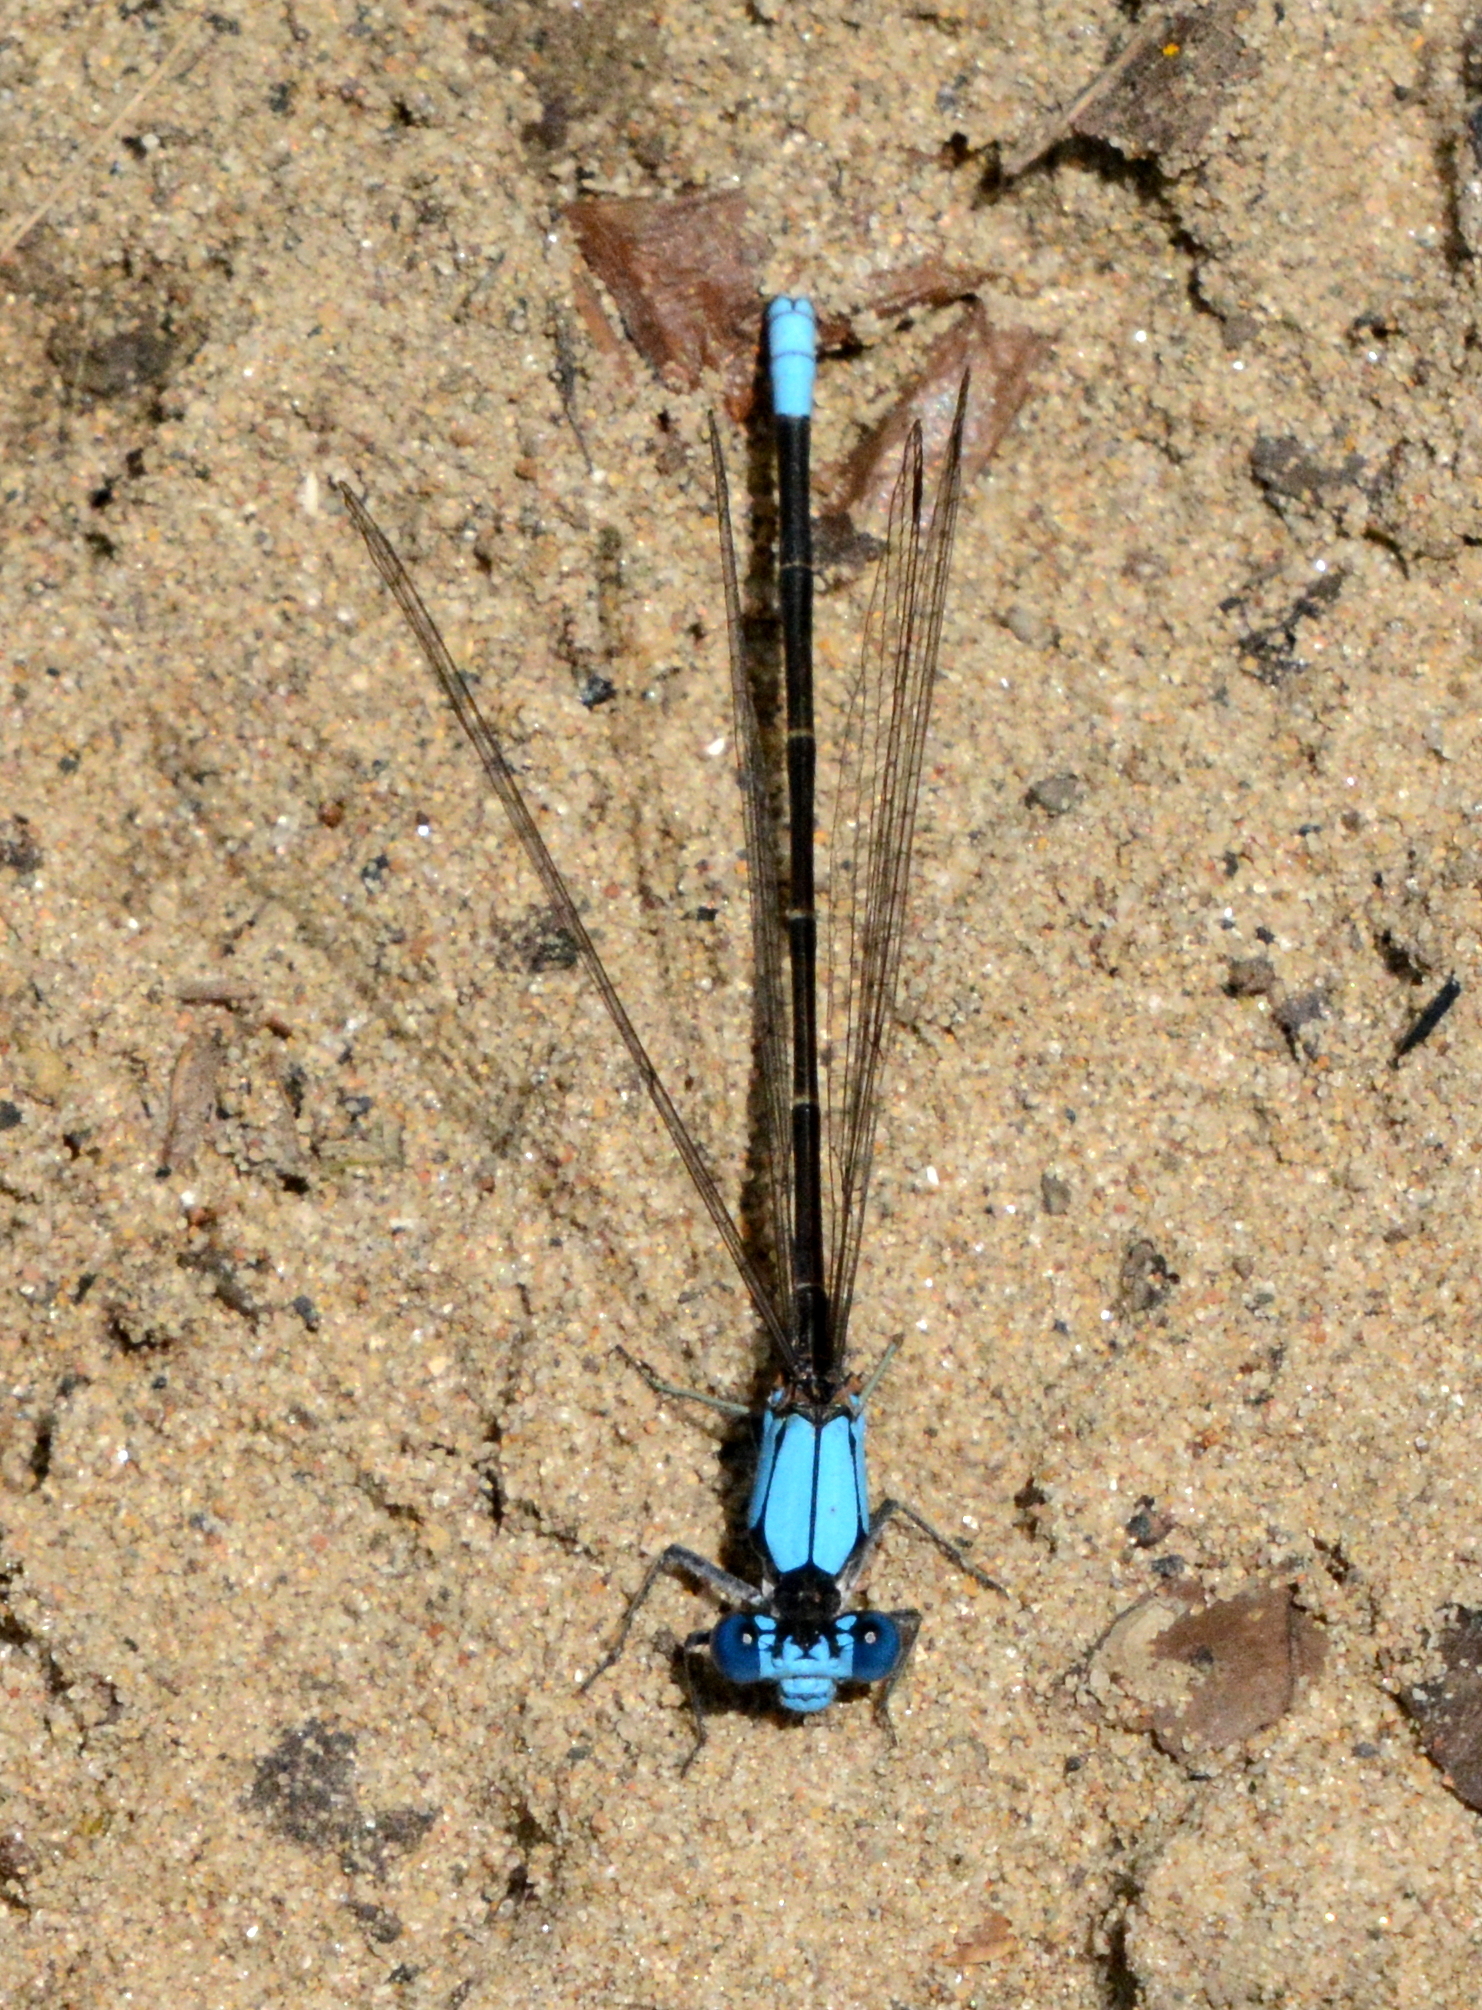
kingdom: Animalia
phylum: Arthropoda
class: Insecta
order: Odonata
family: Coenagrionidae
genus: Argia
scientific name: Argia apicalis
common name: Blue-fronted dancer
